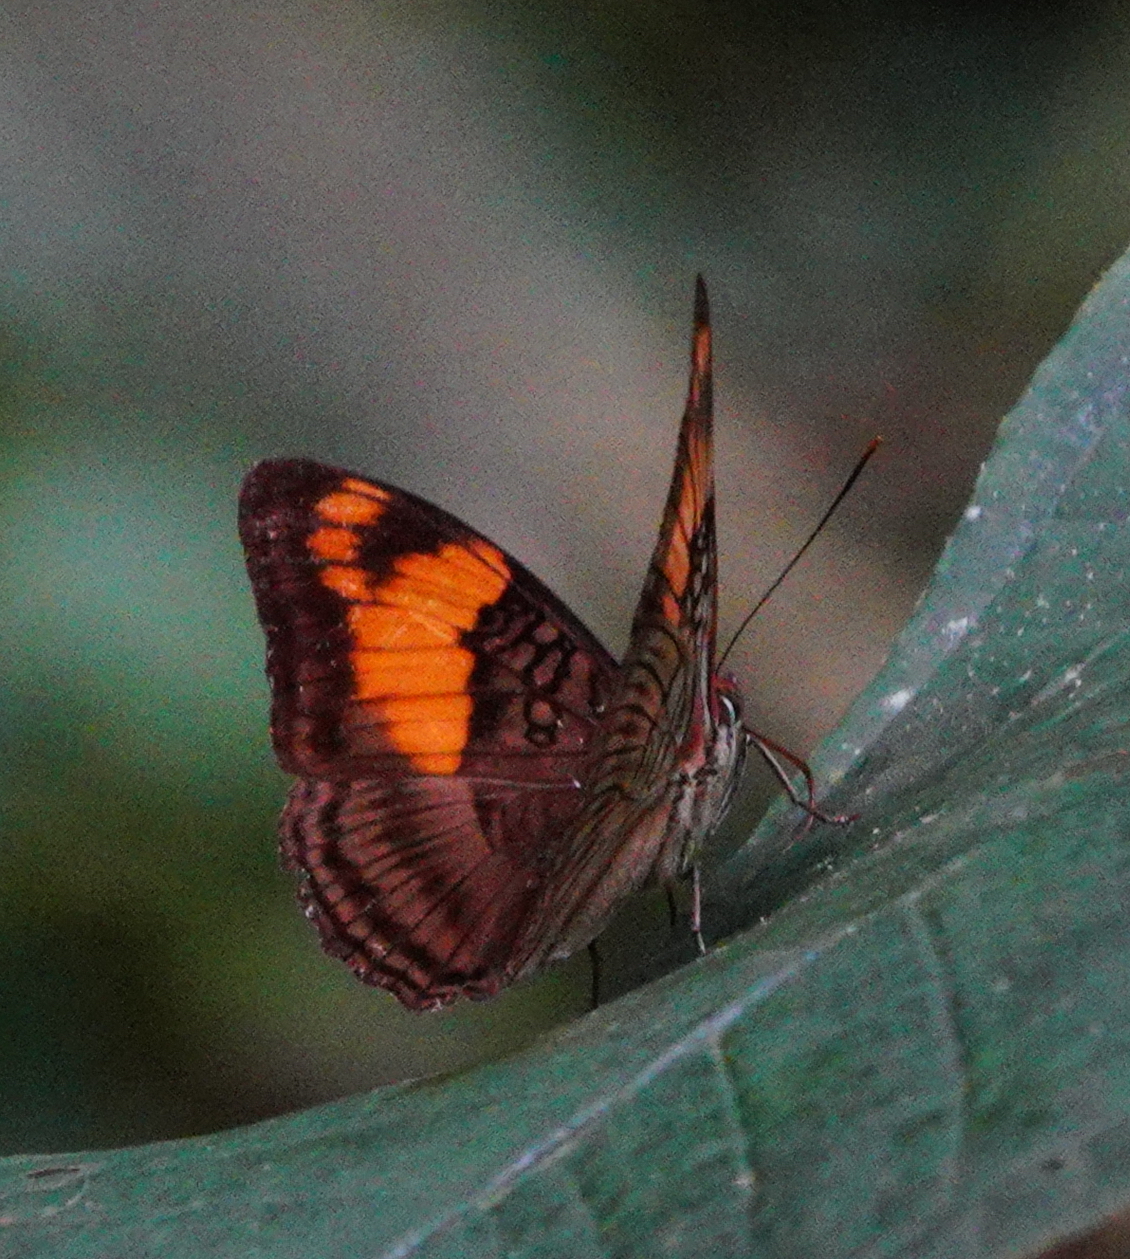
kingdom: Animalia
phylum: Arthropoda
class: Insecta
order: Lepidoptera
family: Nymphalidae
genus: Limenitis
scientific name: Limenitis mesentina
